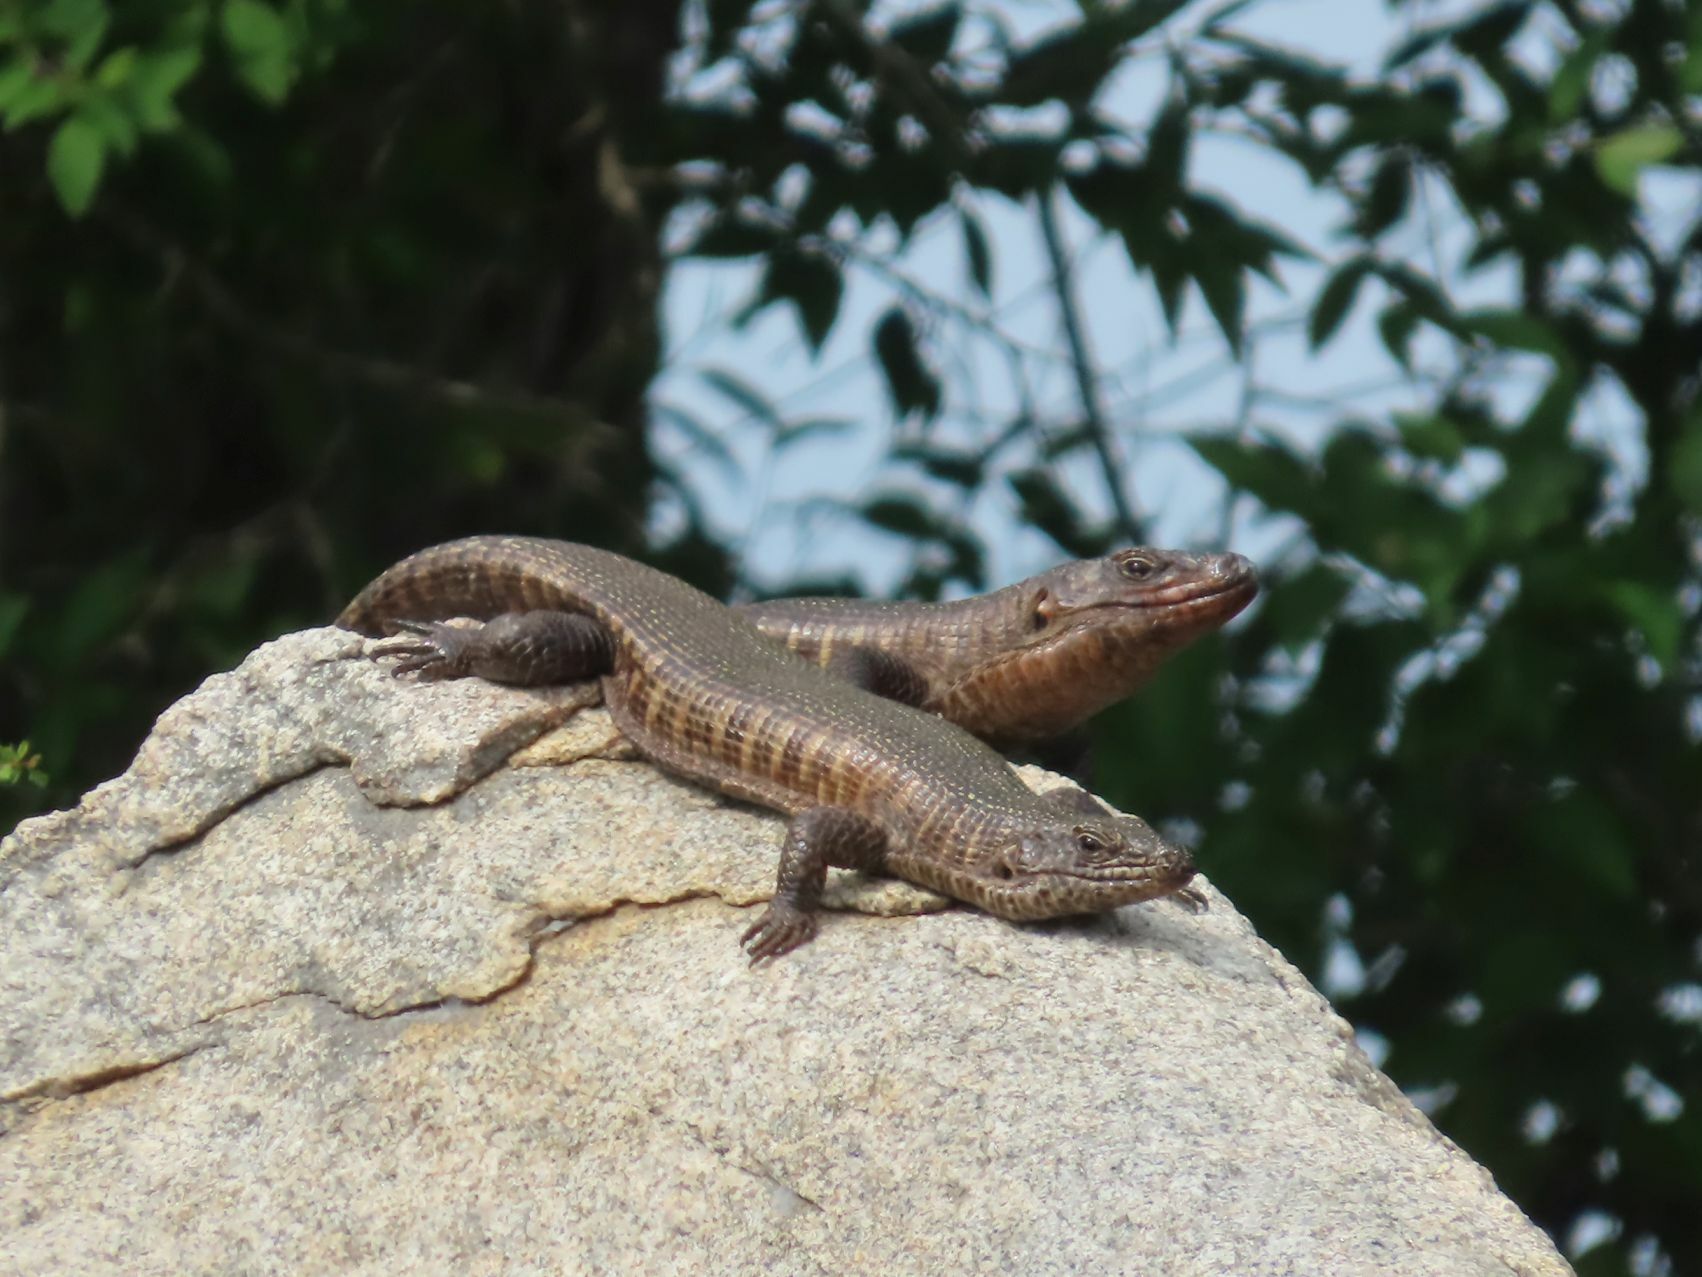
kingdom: Animalia
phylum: Chordata
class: Squamata
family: Gerrhosauridae
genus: Matobosaurus
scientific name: Matobosaurus validus
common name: Common giant plated lizard
